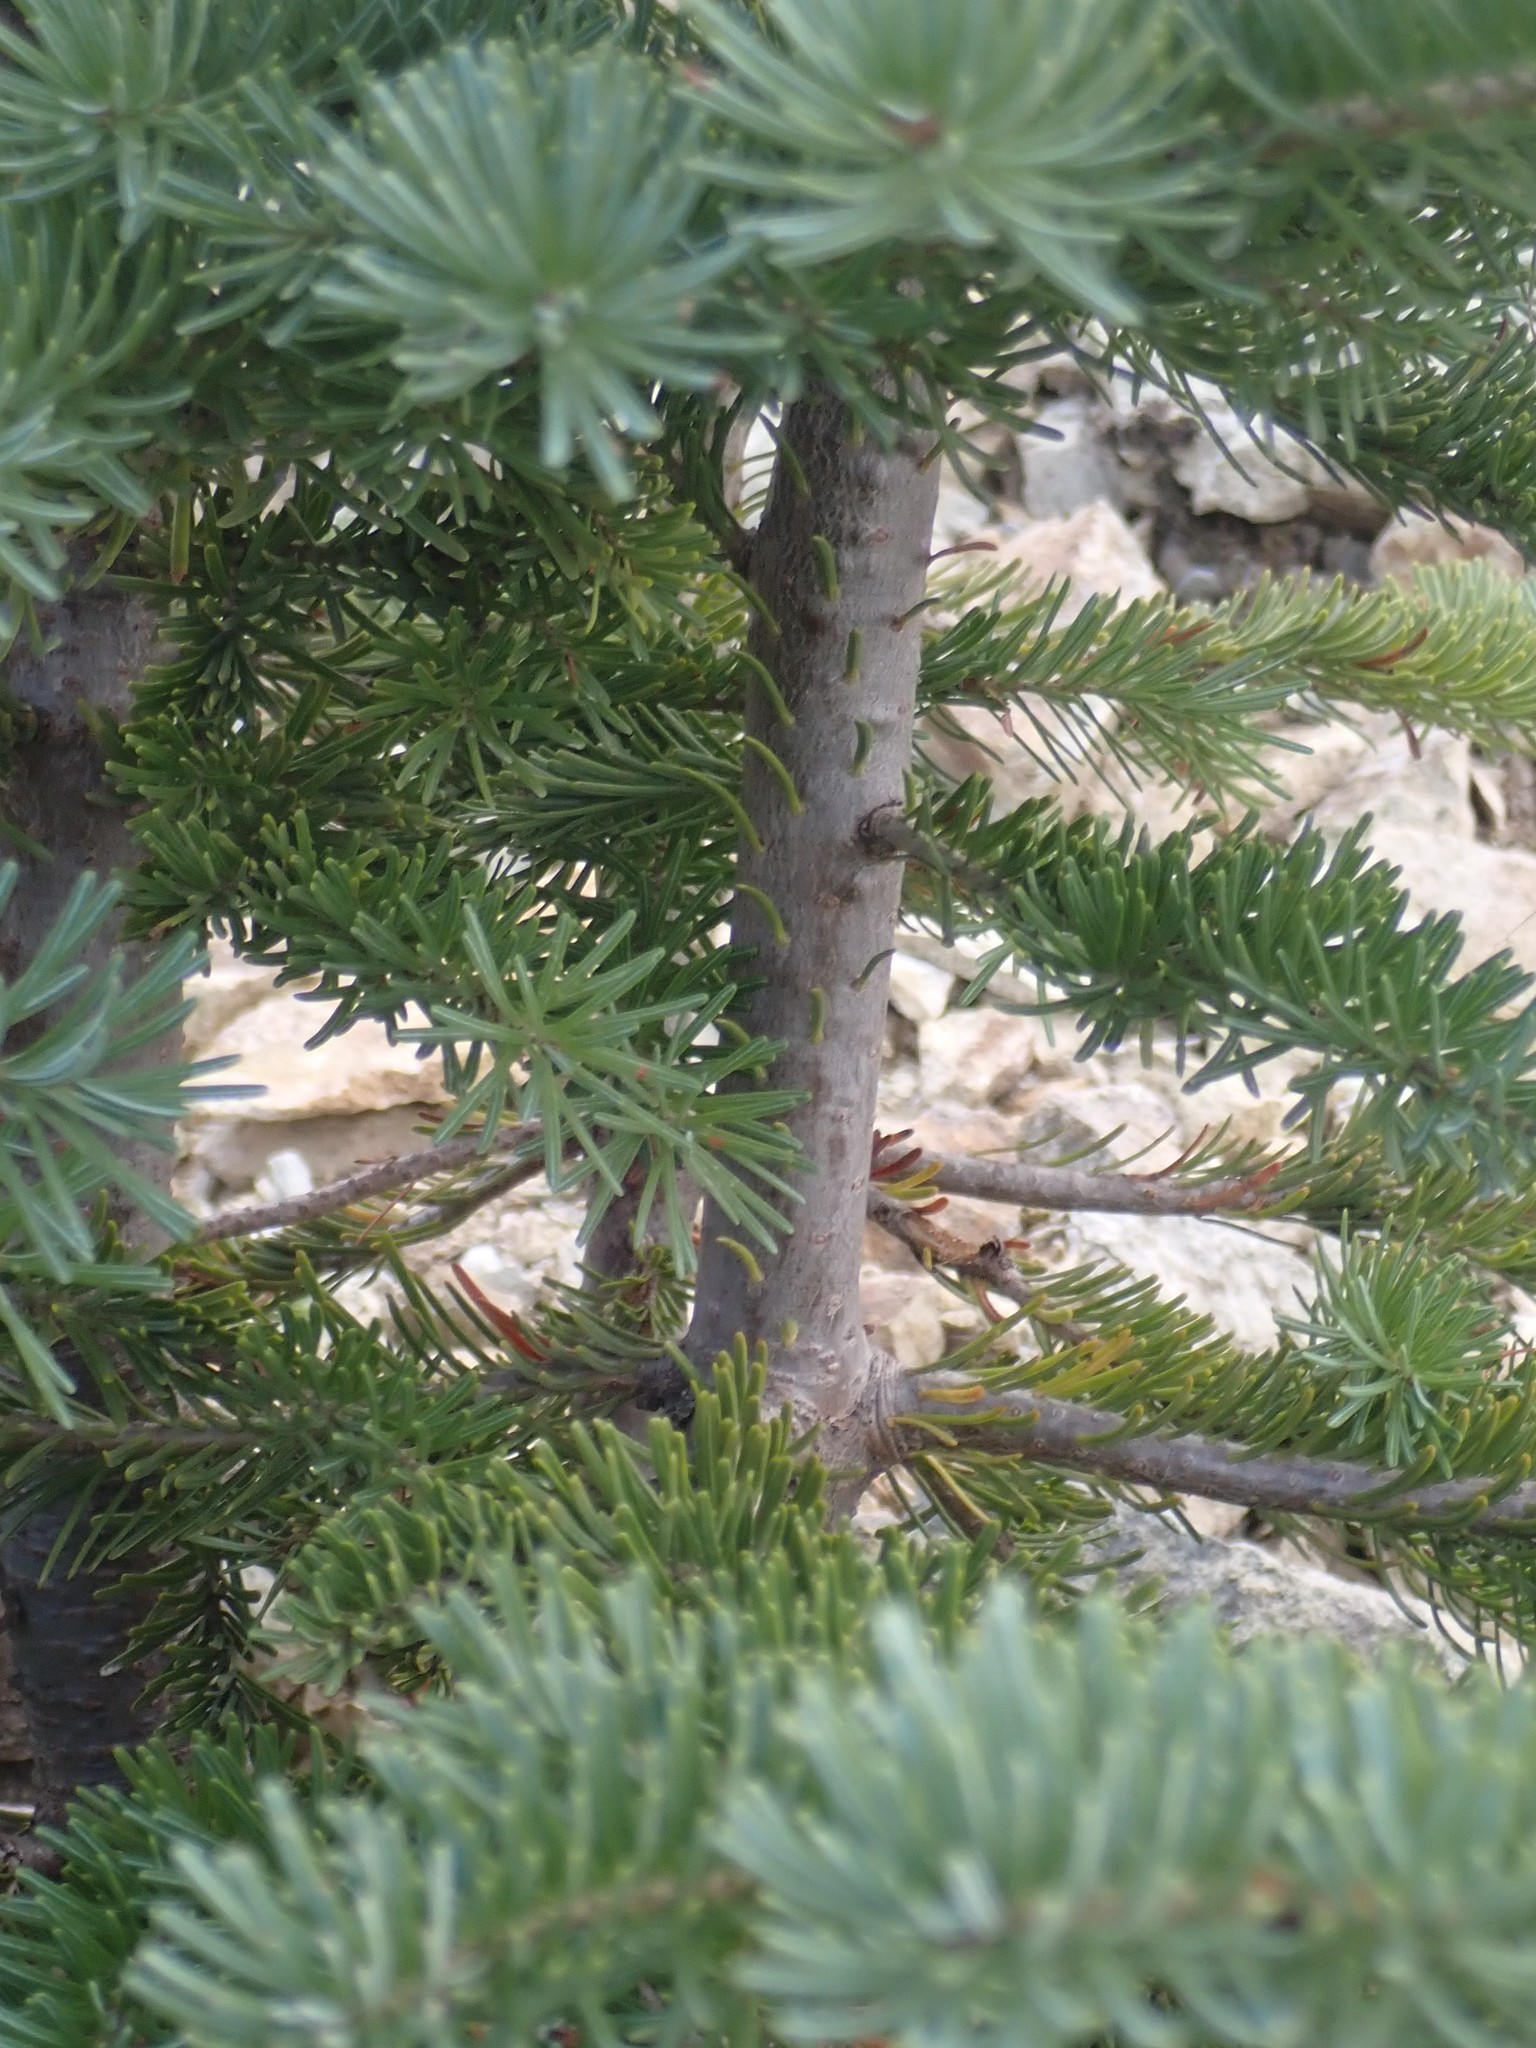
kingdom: Plantae
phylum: Tracheophyta
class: Pinopsida
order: Pinales
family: Pinaceae
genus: Abies
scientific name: Abies lasiocarpa
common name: Subalpine fir
